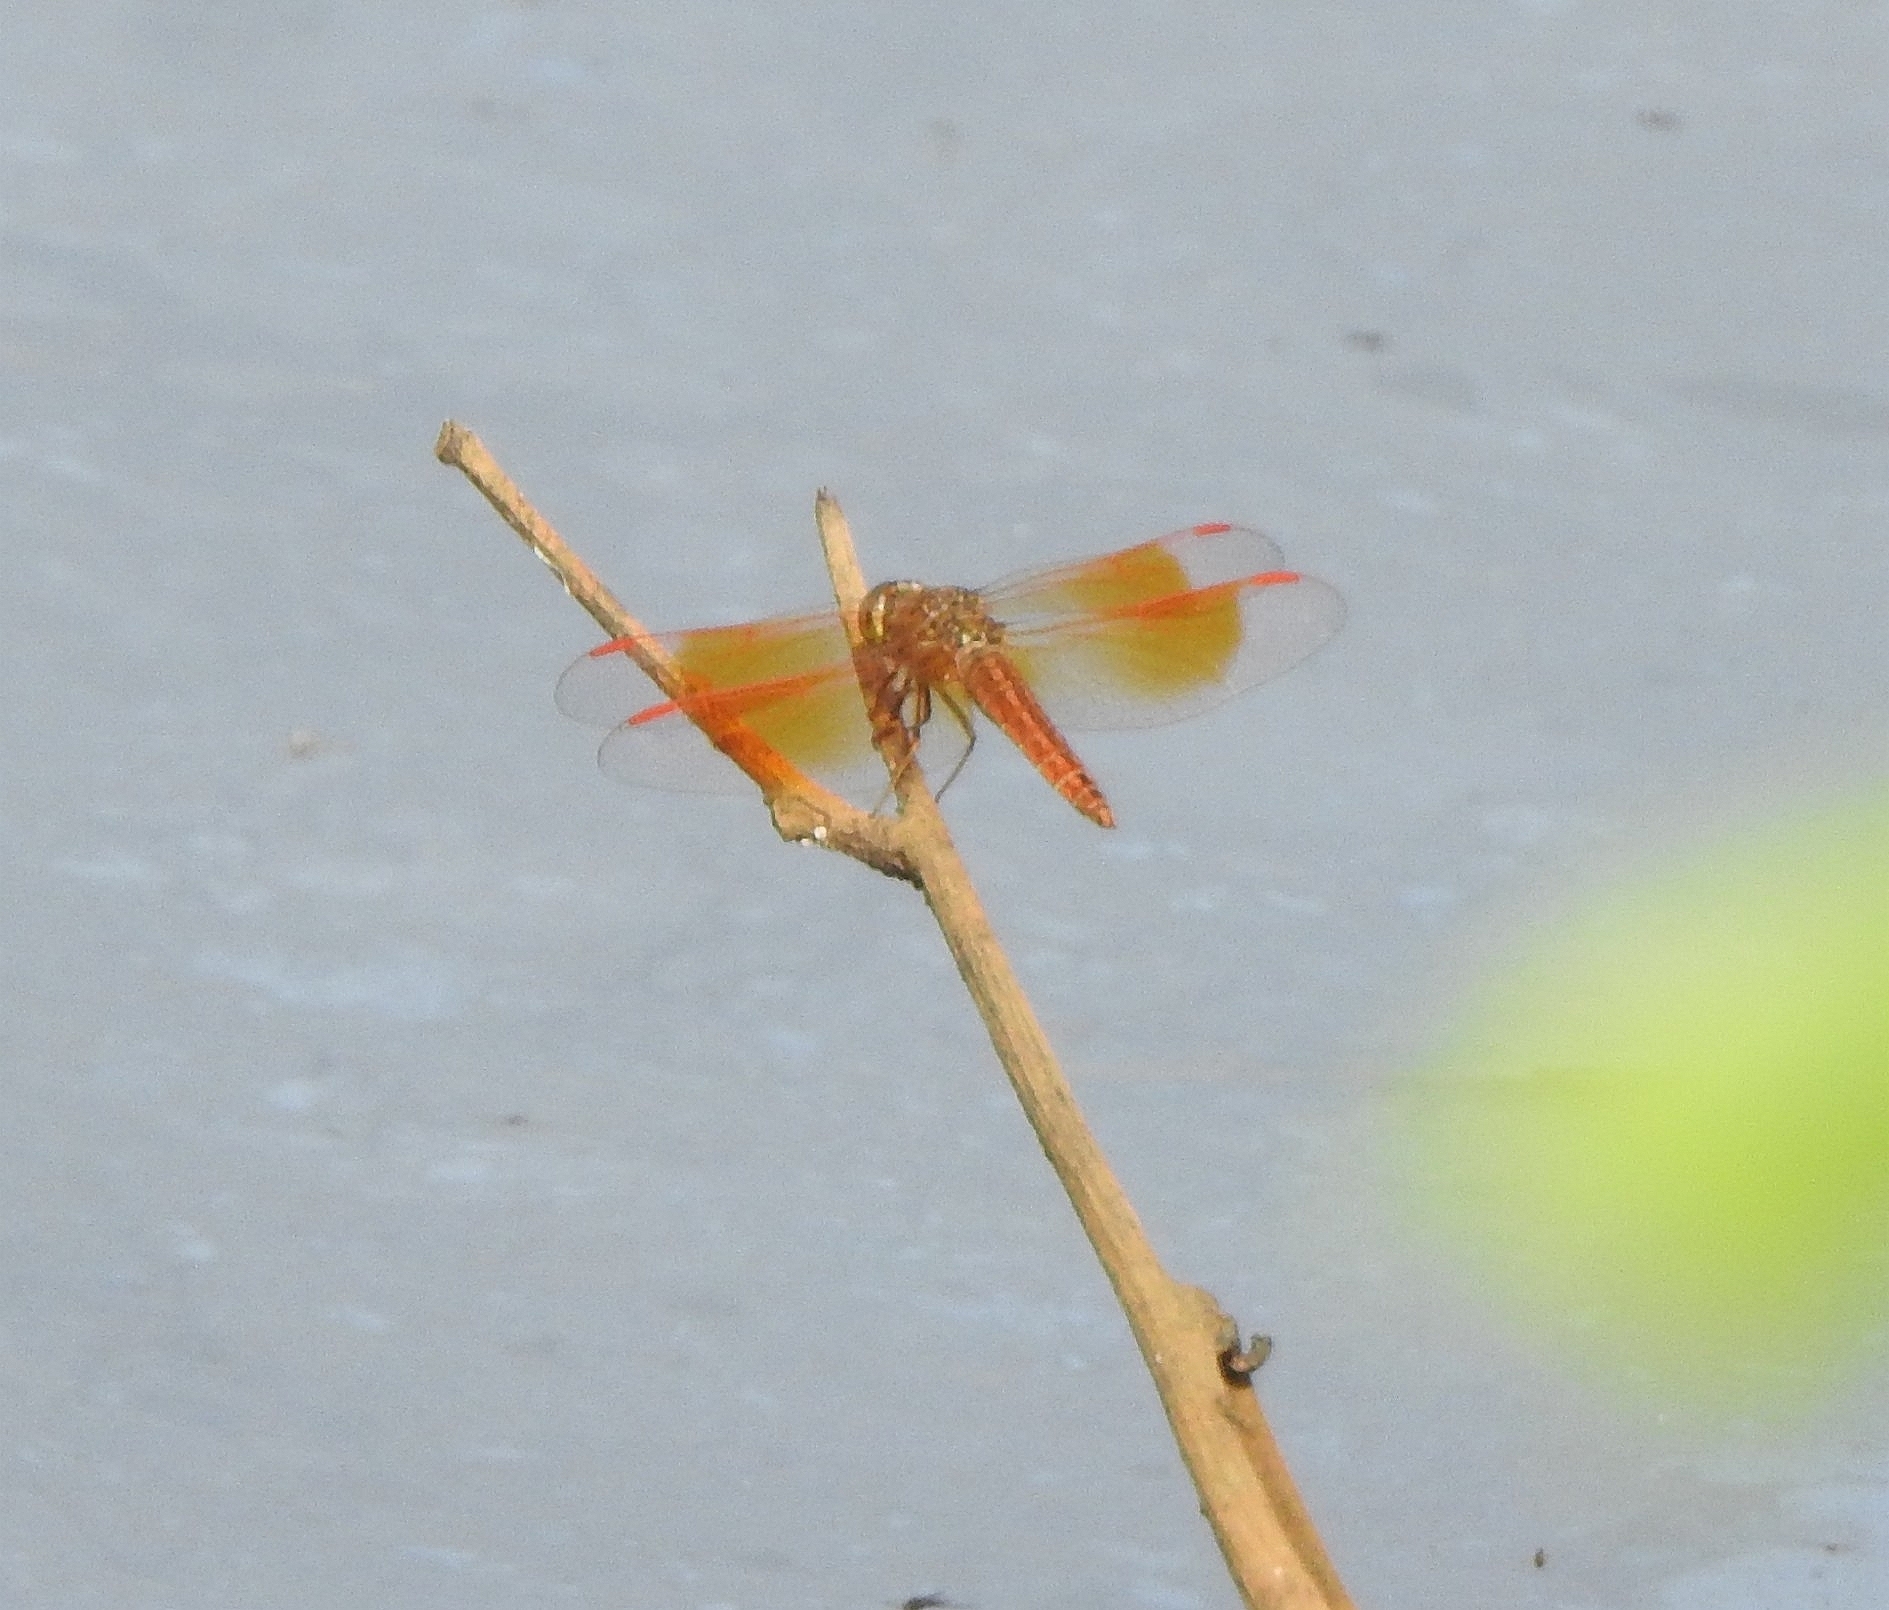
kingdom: Animalia
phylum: Arthropoda
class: Insecta
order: Odonata
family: Libellulidae
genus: Brachythemis
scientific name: Brachythemis contaminata
